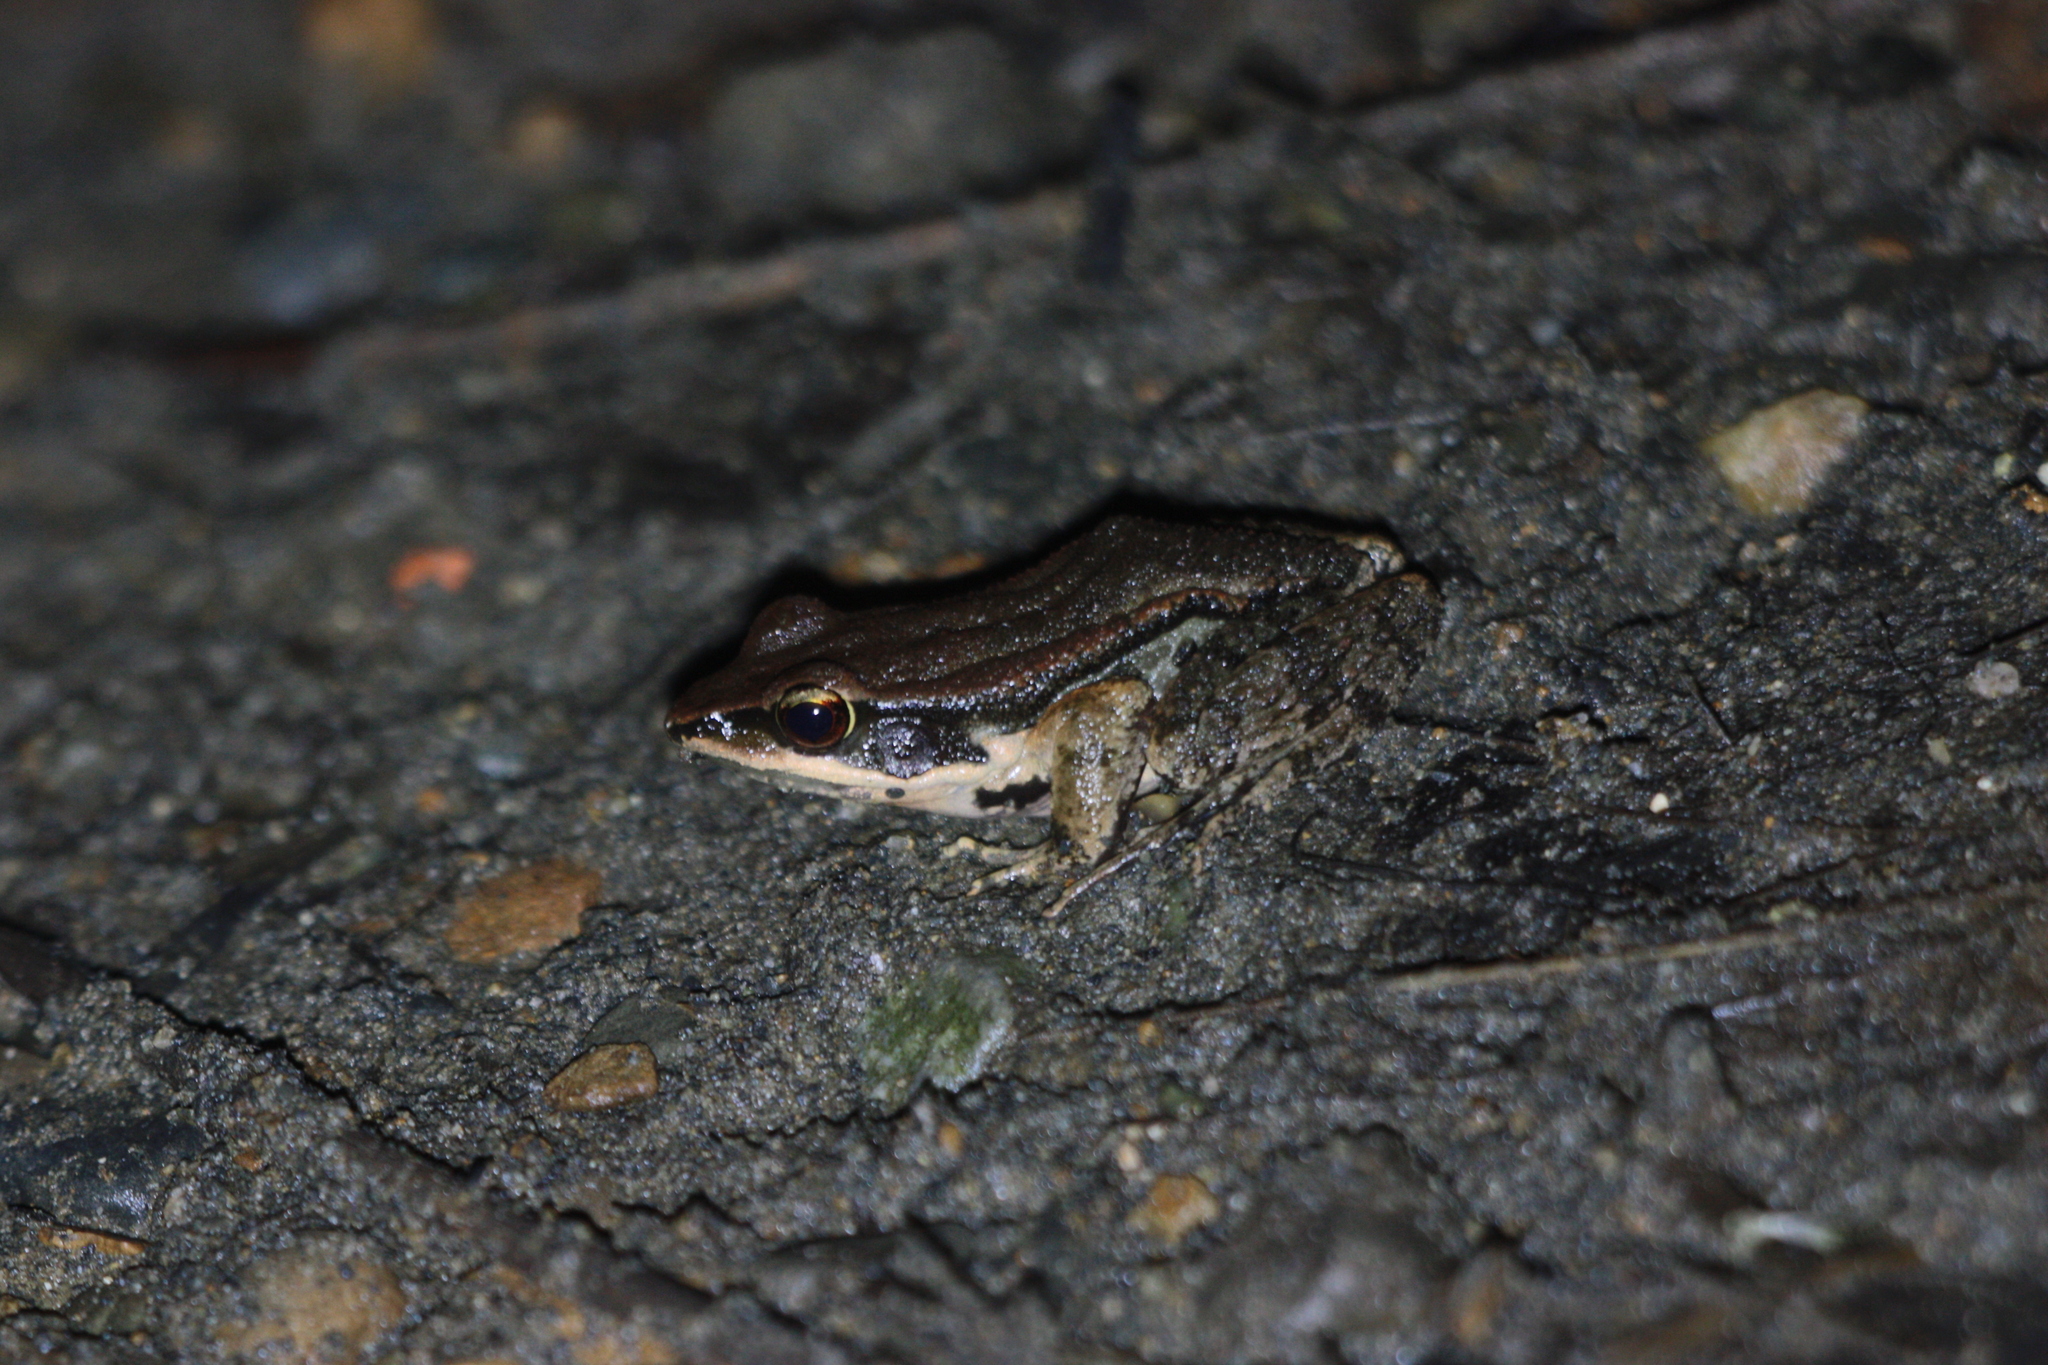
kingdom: Animalia
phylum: Chordata
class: Amphibia
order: Anura
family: Ranidae
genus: Hylarana
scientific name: Hylarana latouchii
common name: Broad-folded frog
